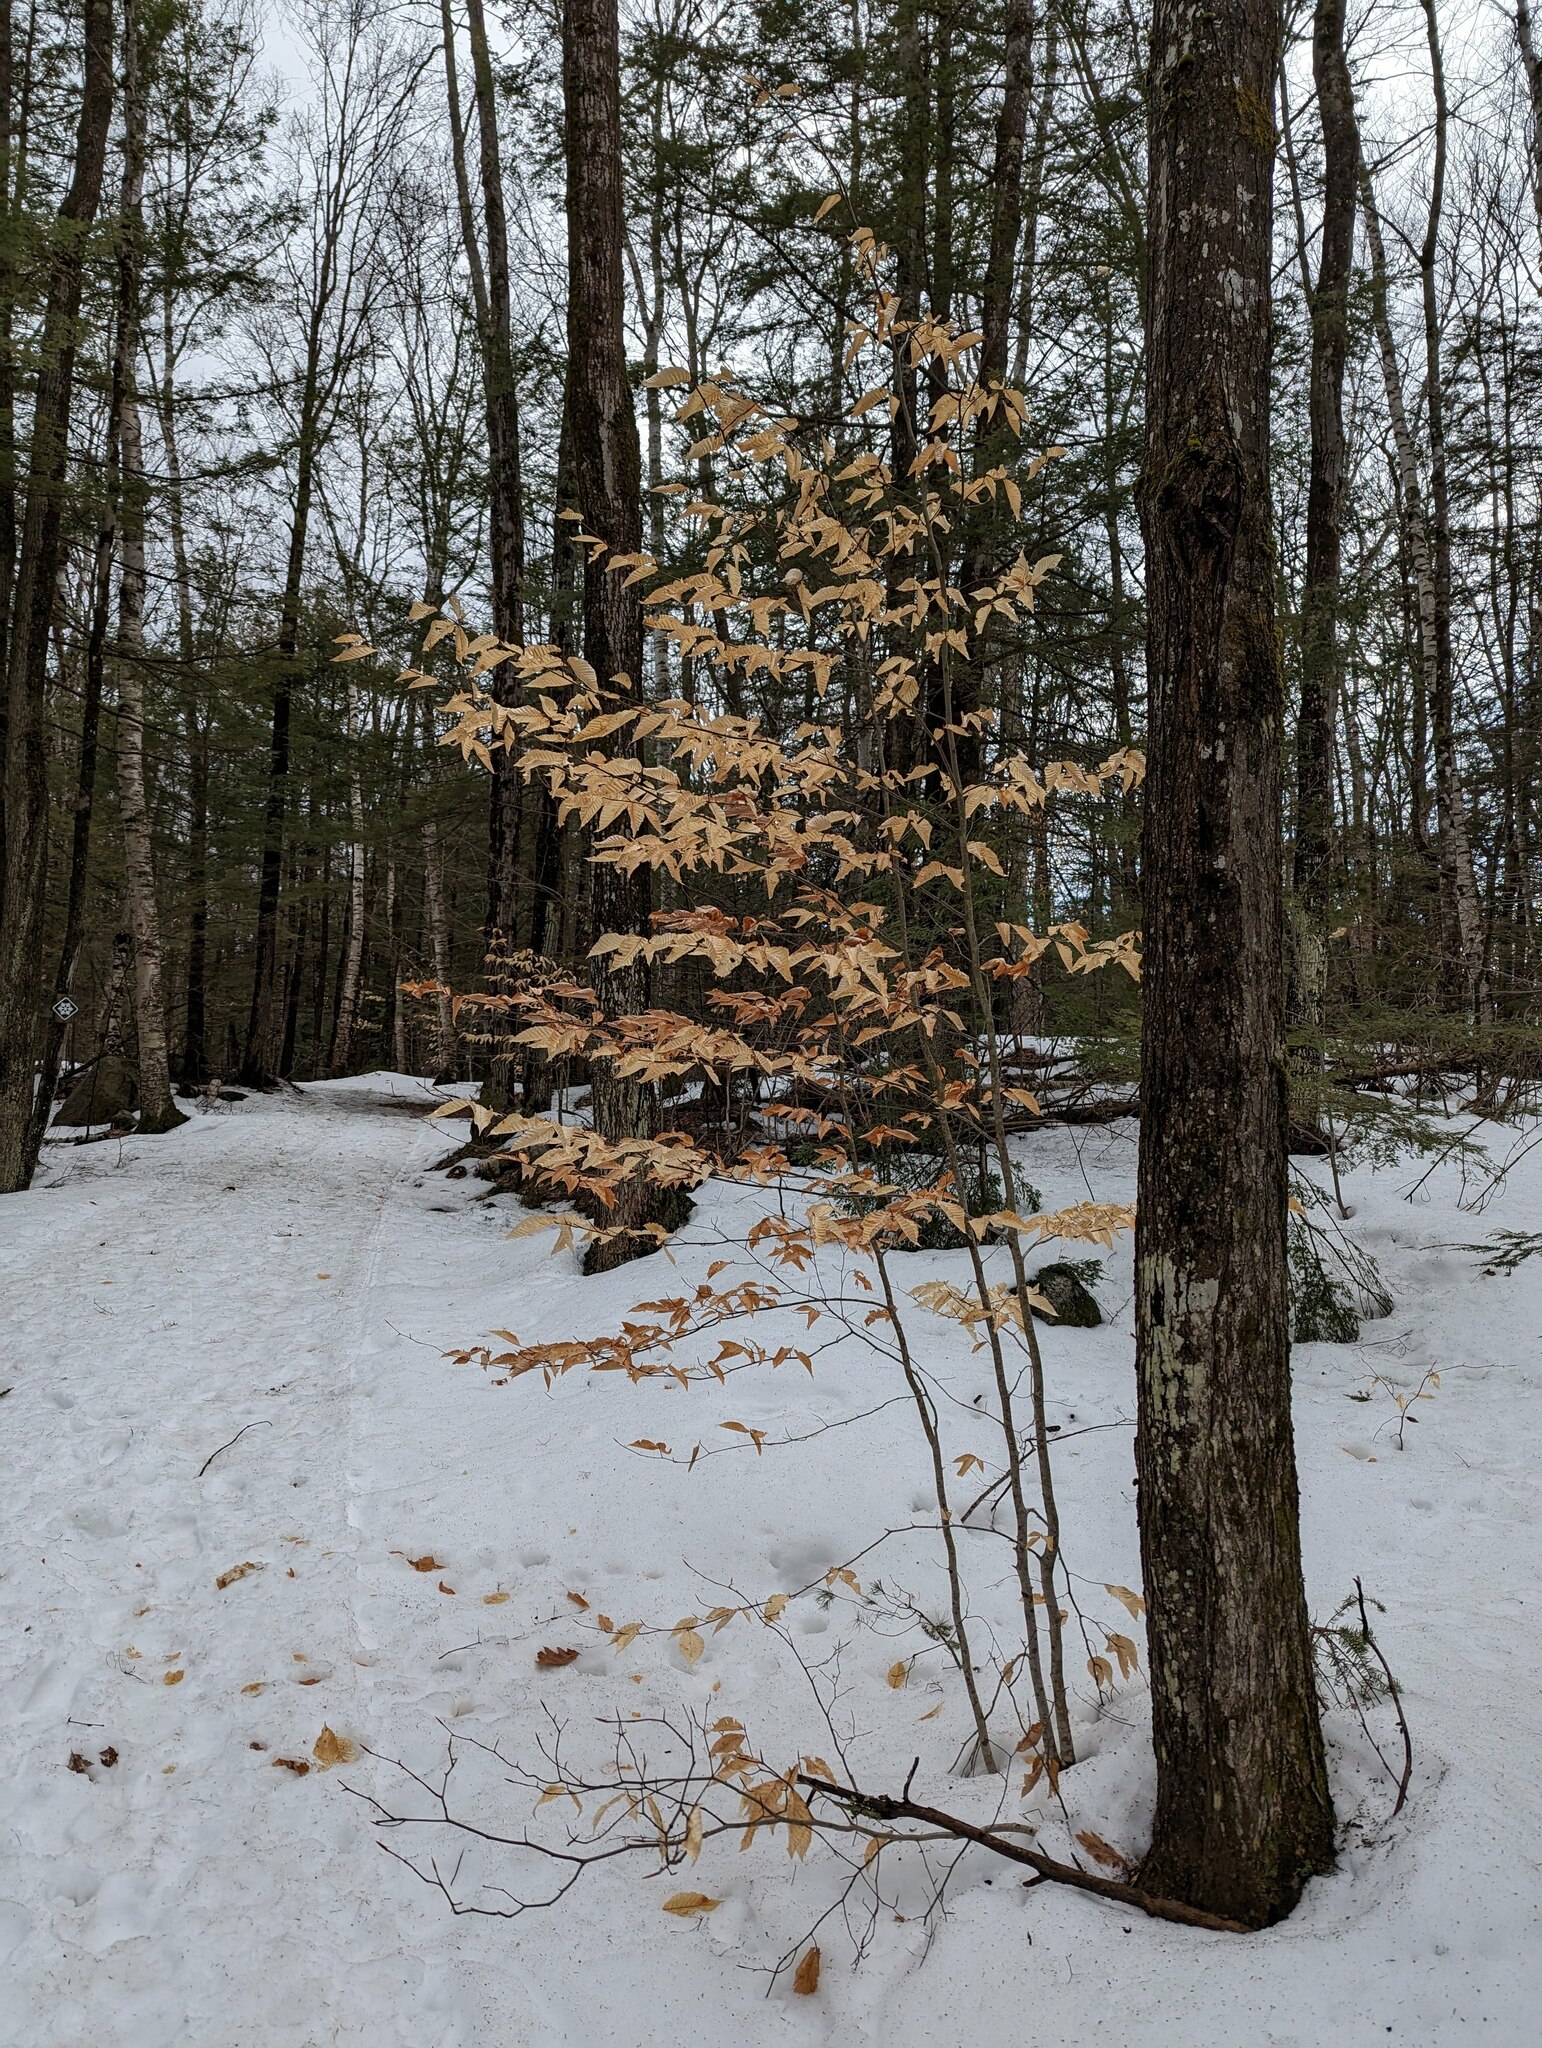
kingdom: Plantae
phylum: Tracheophyta
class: Magnoliopsida
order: Fagales
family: Fagaceae
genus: Fagus
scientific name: Fagus grandifolia
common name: American beech
